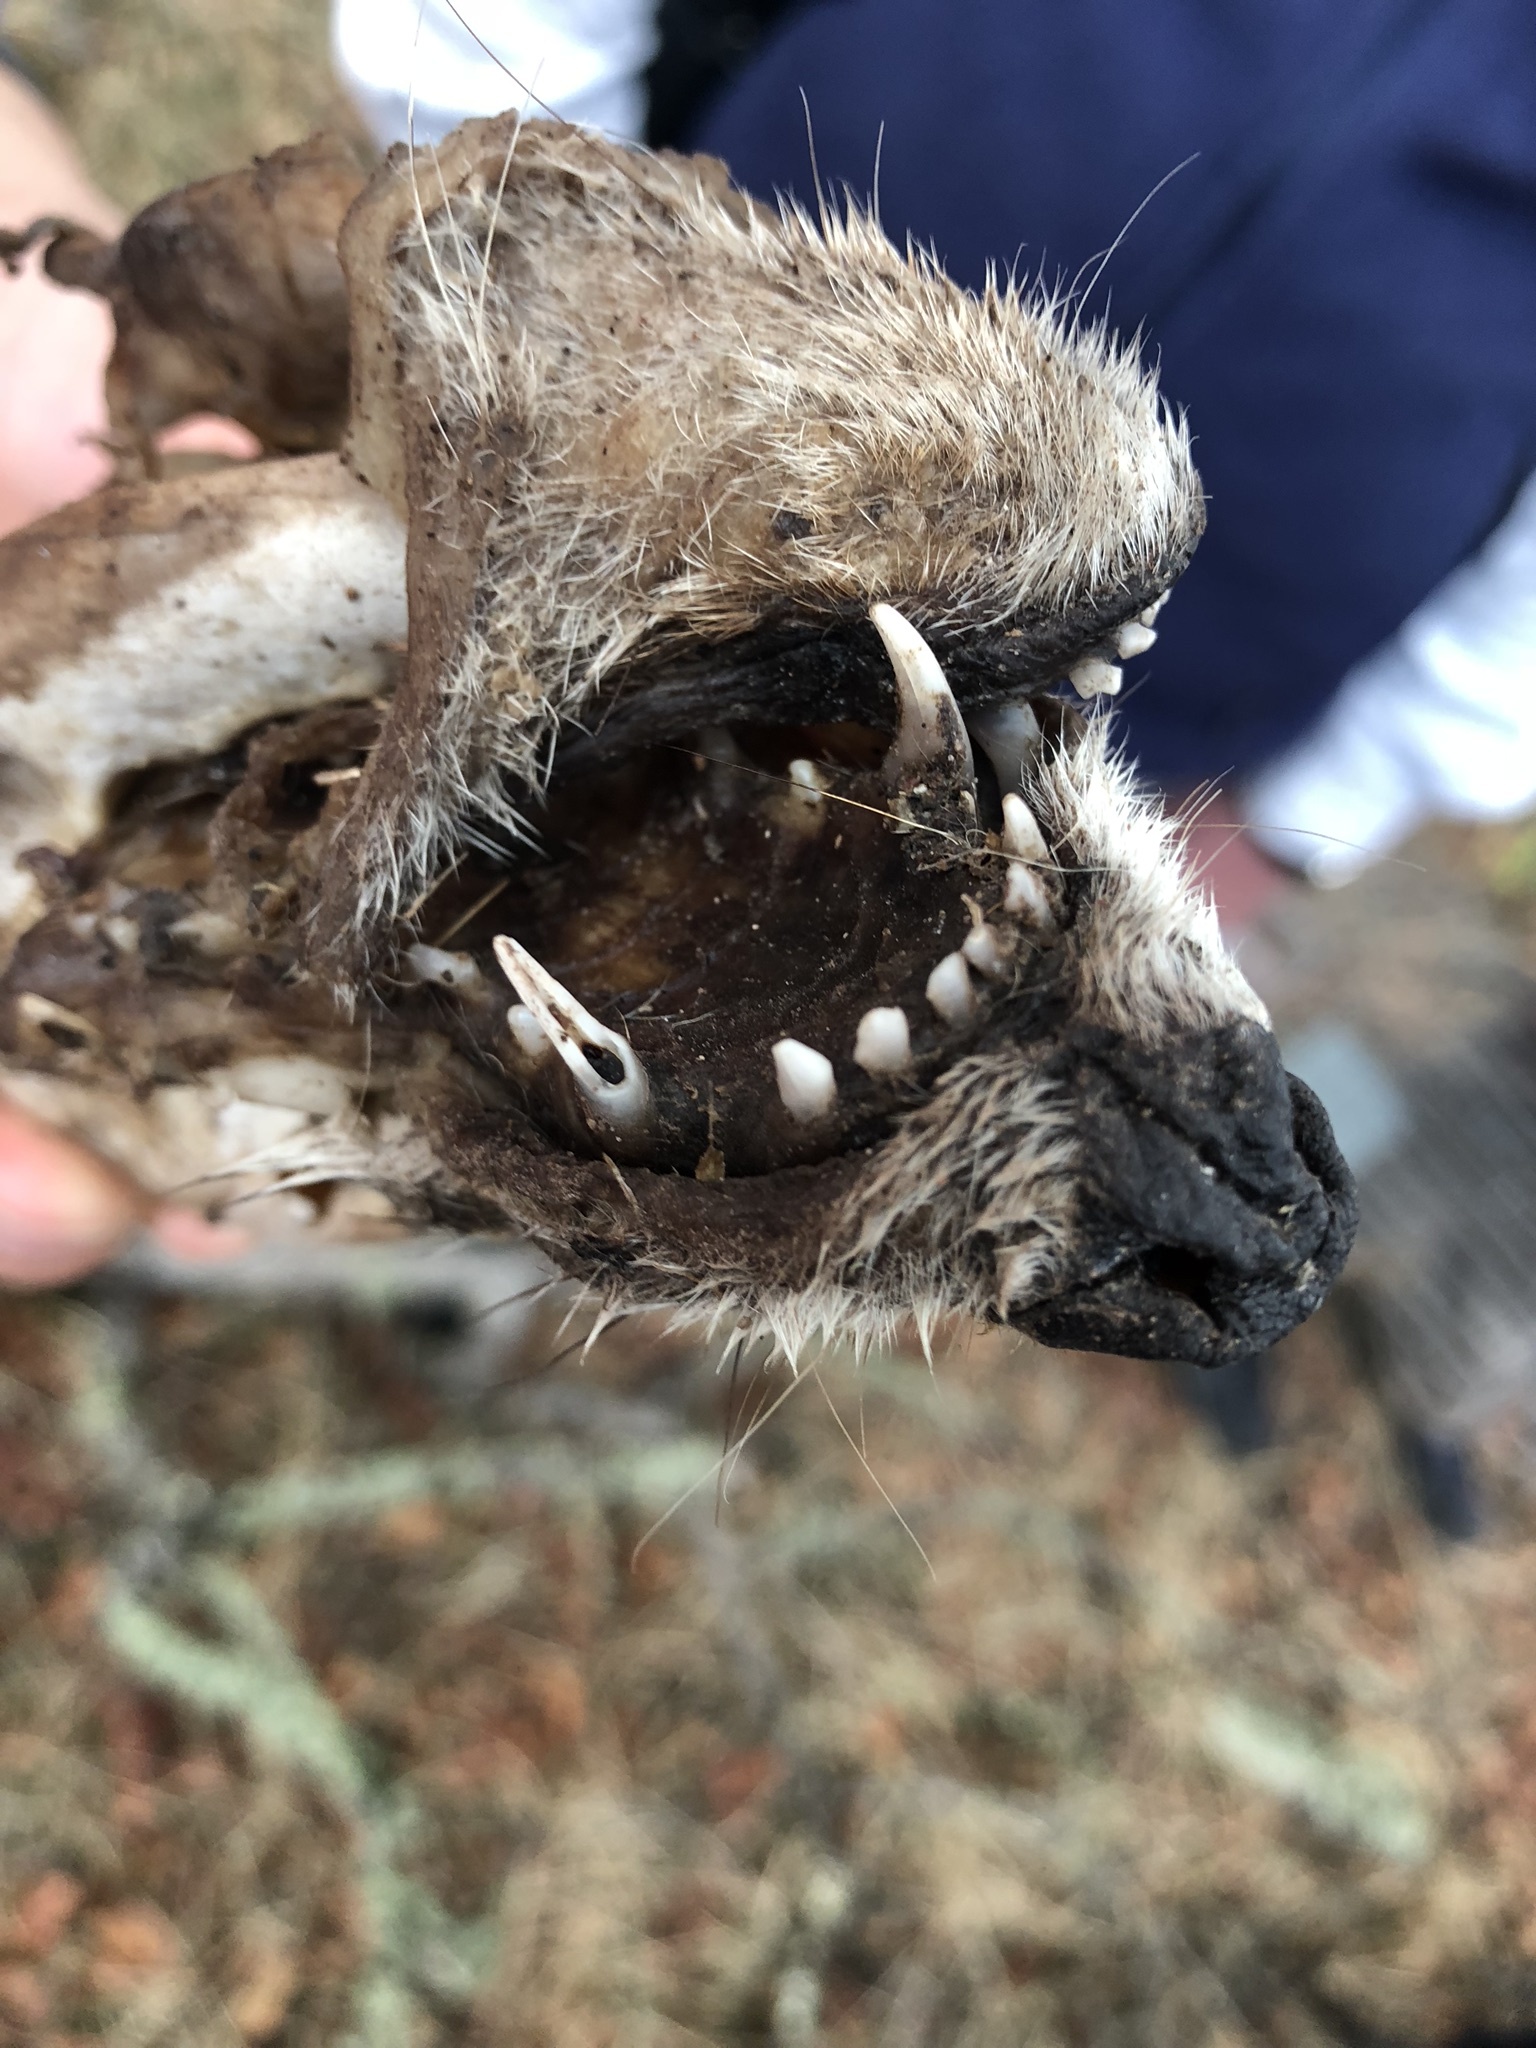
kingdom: Animalia
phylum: Chordata
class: Mammalia
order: Carnivora
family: Canidae
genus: Canis
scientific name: Canis latrans
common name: Coyote
